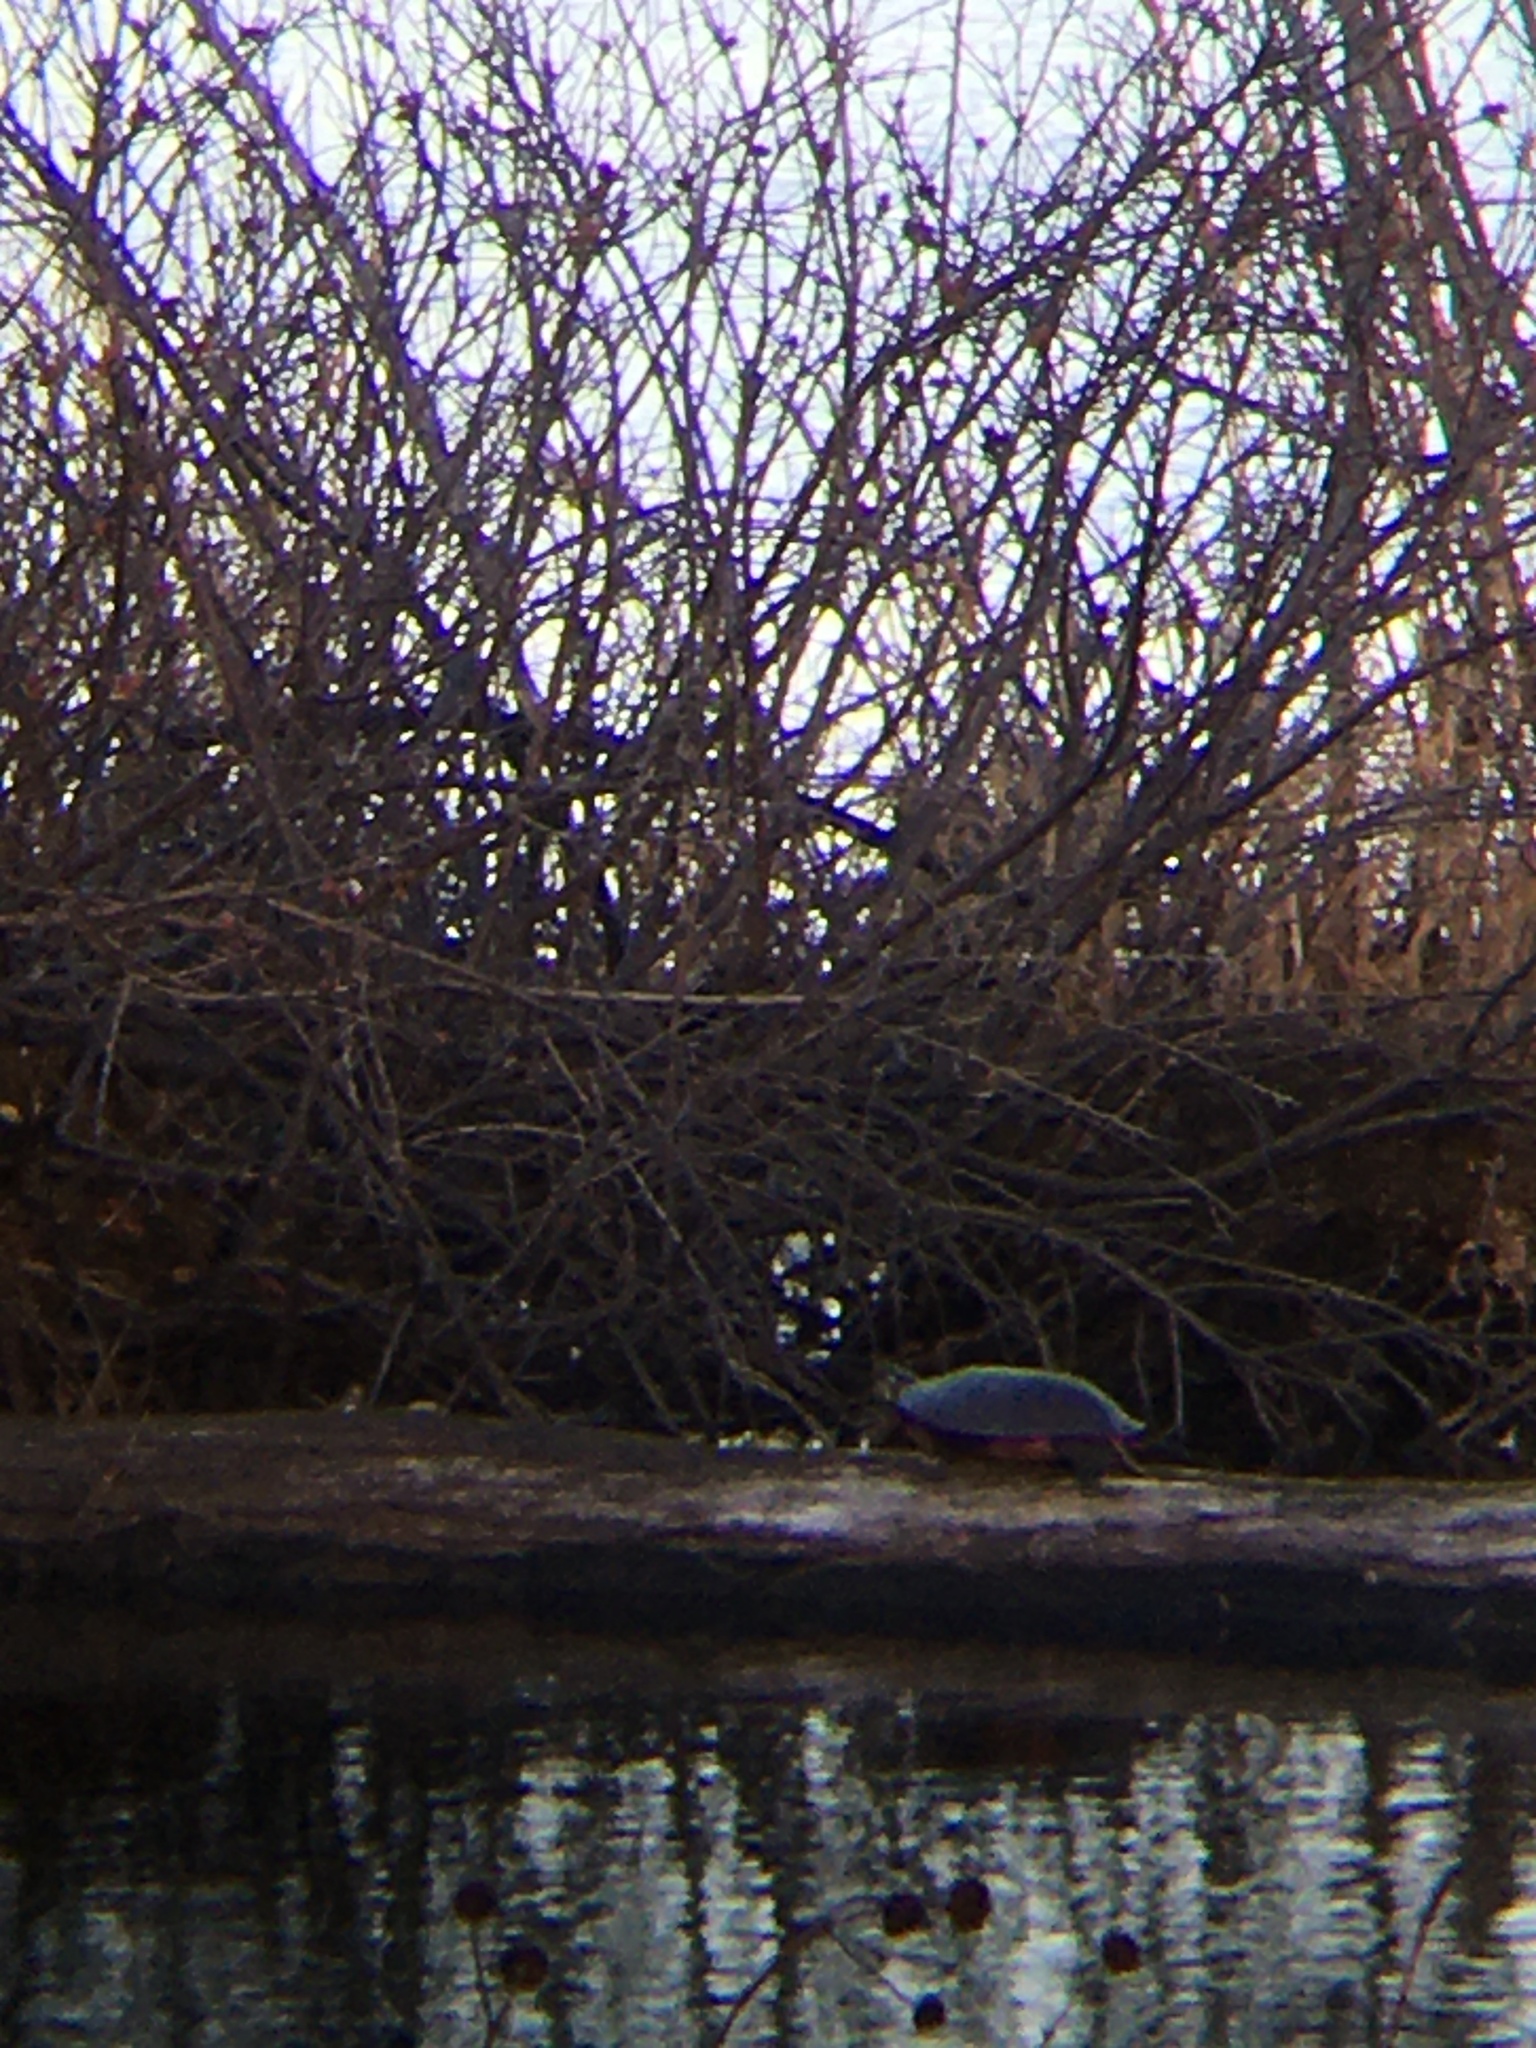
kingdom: Animalia
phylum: Chordata
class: Testudines
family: Emydidae
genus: Chrysemys
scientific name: Chrysemys picta
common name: Painted turtle
